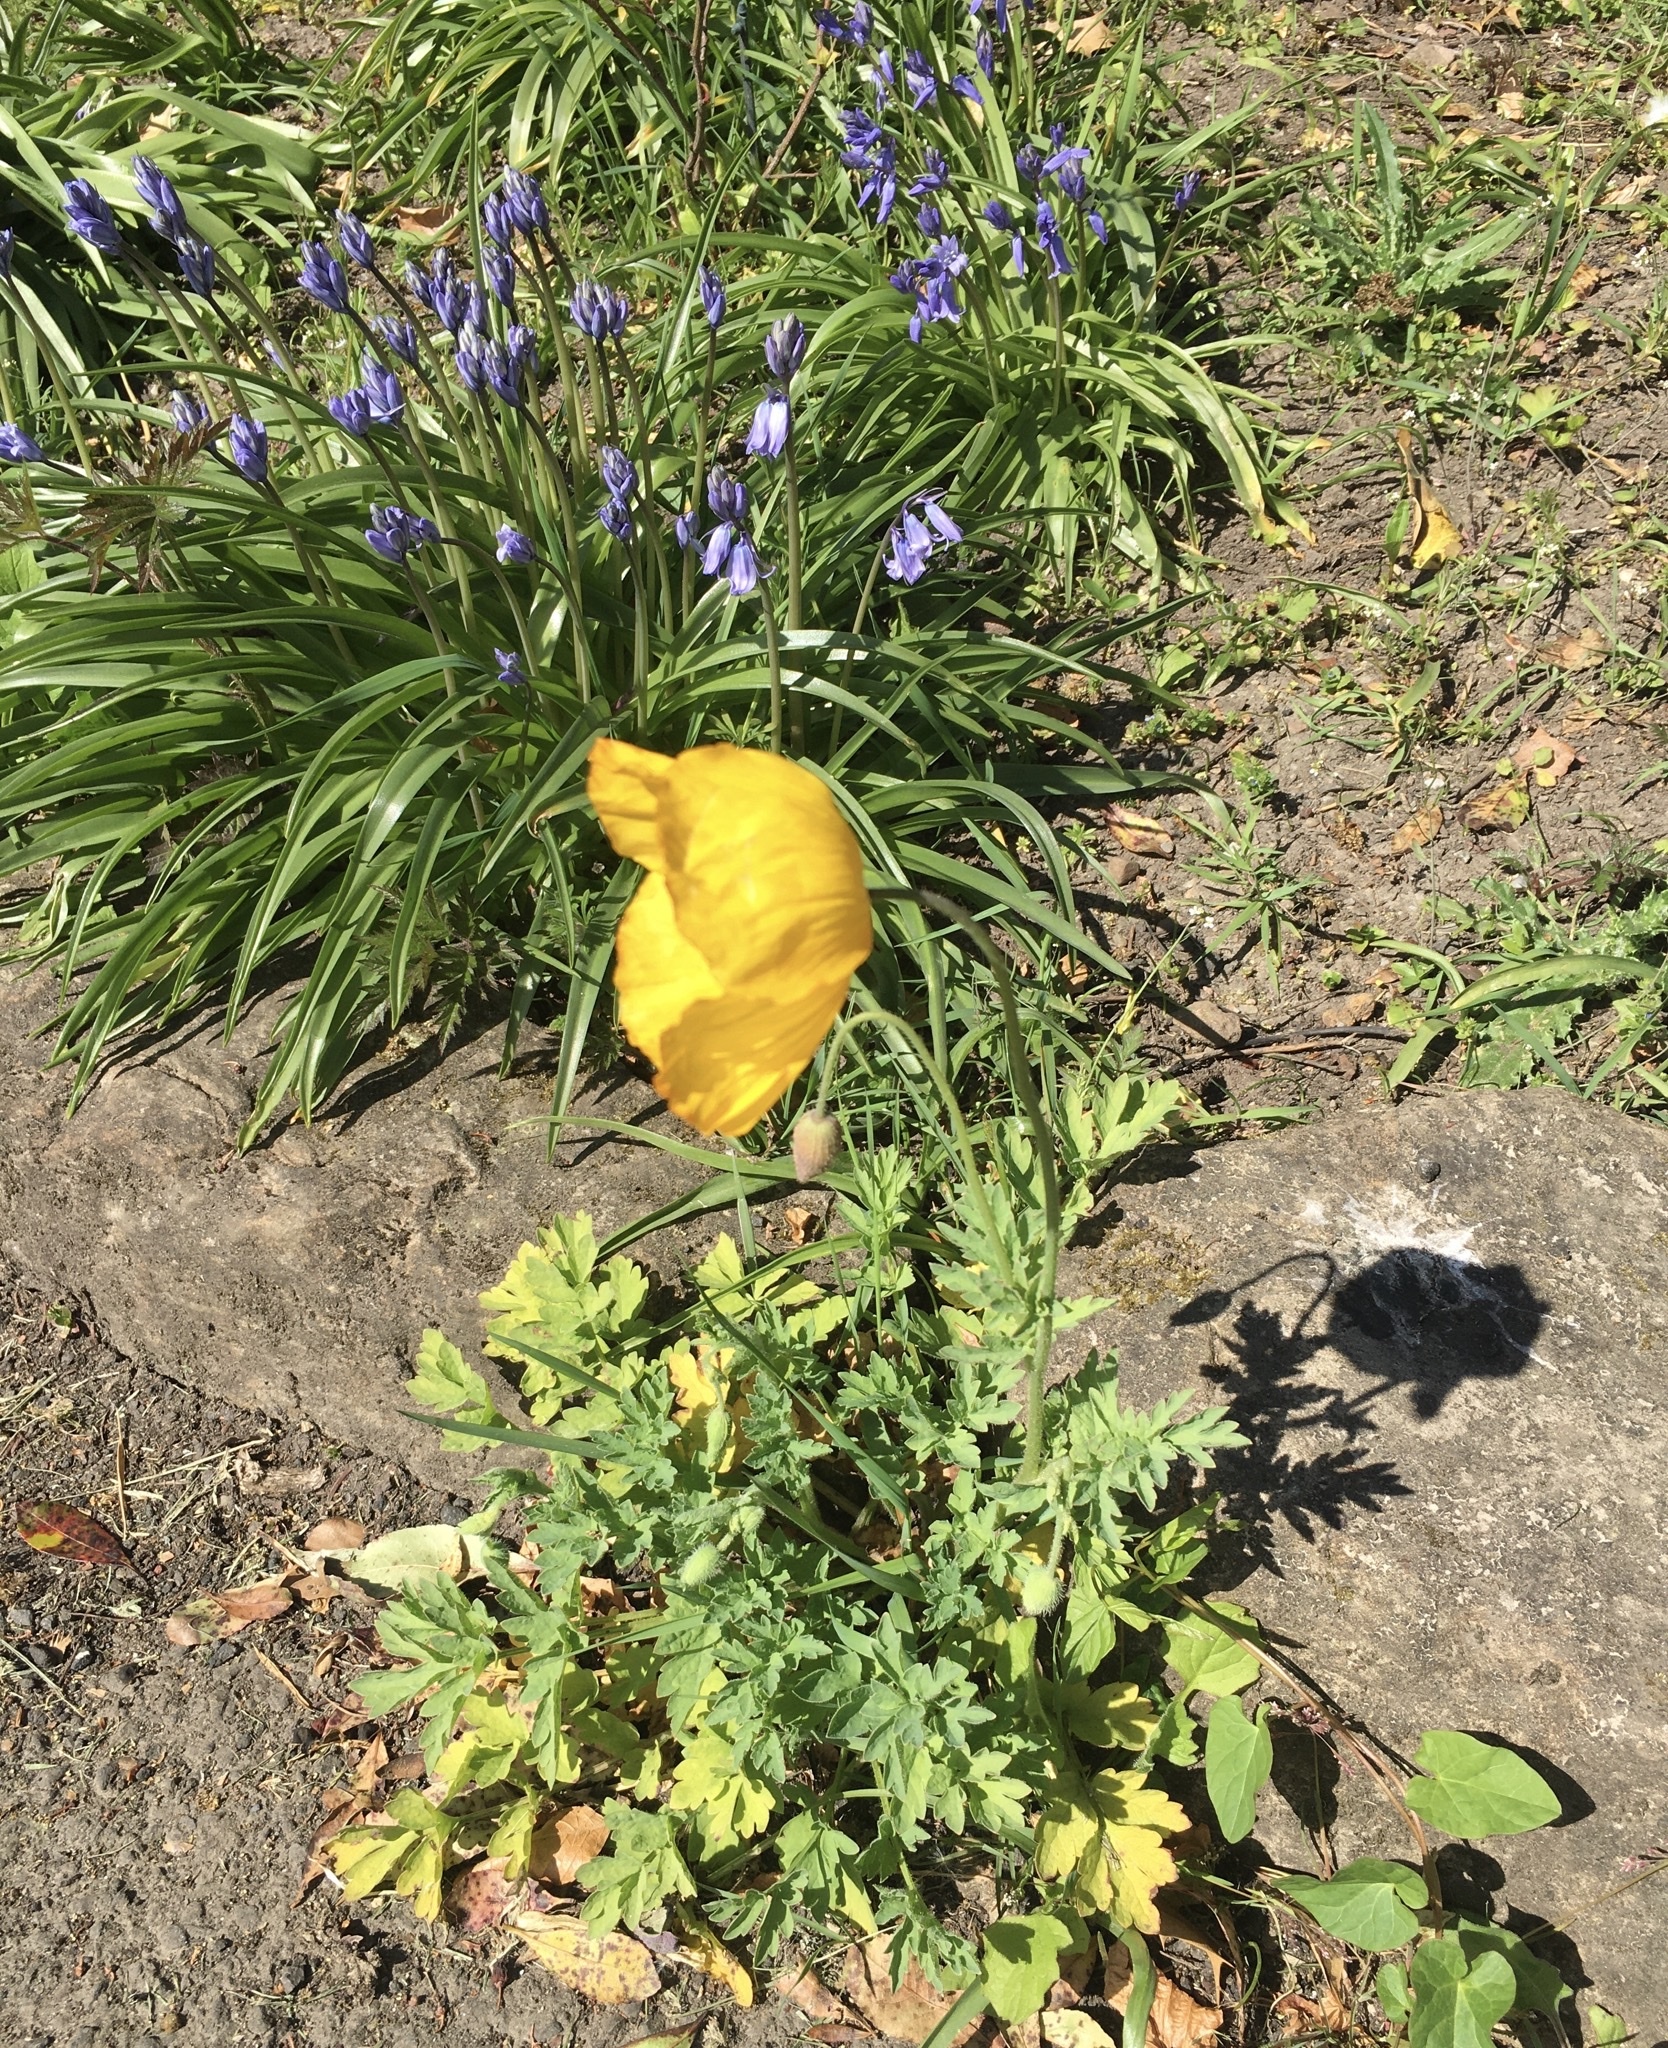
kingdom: Plantae
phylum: Tracheophyta
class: Magnoliopsida
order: Ranunculales
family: Papaveraceae
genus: Papaver
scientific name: Papaver cambricum
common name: Poppy
